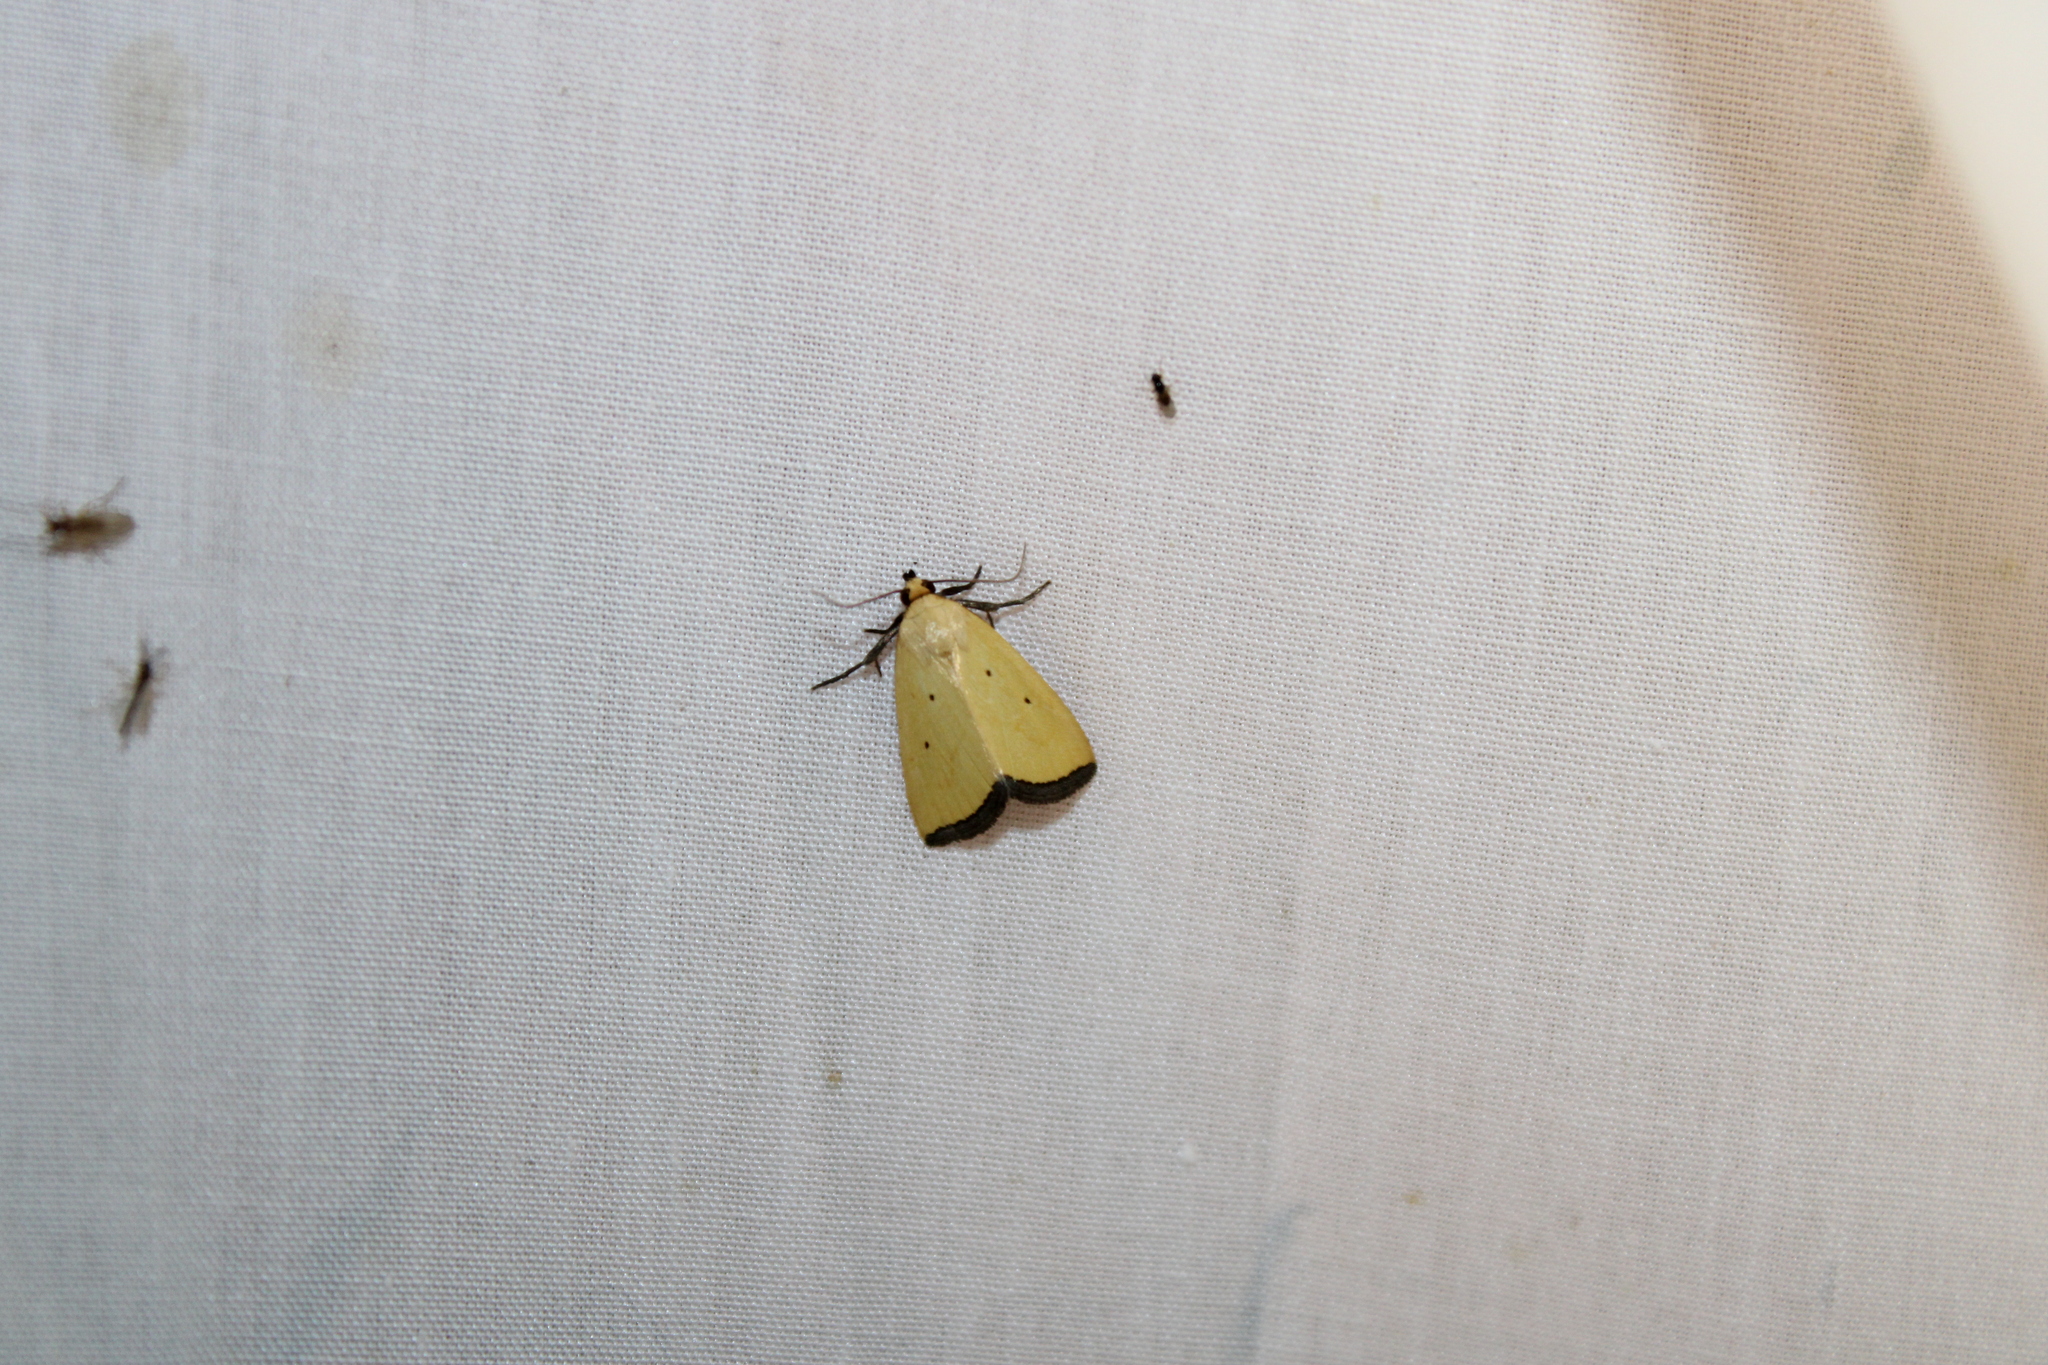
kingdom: Animalia
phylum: Arthropoda
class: Insecta
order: Lepidoptera
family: Noctuidae
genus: Marimatha
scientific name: Marimatha nigrofimbria
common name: Black-bordered lemon moth
